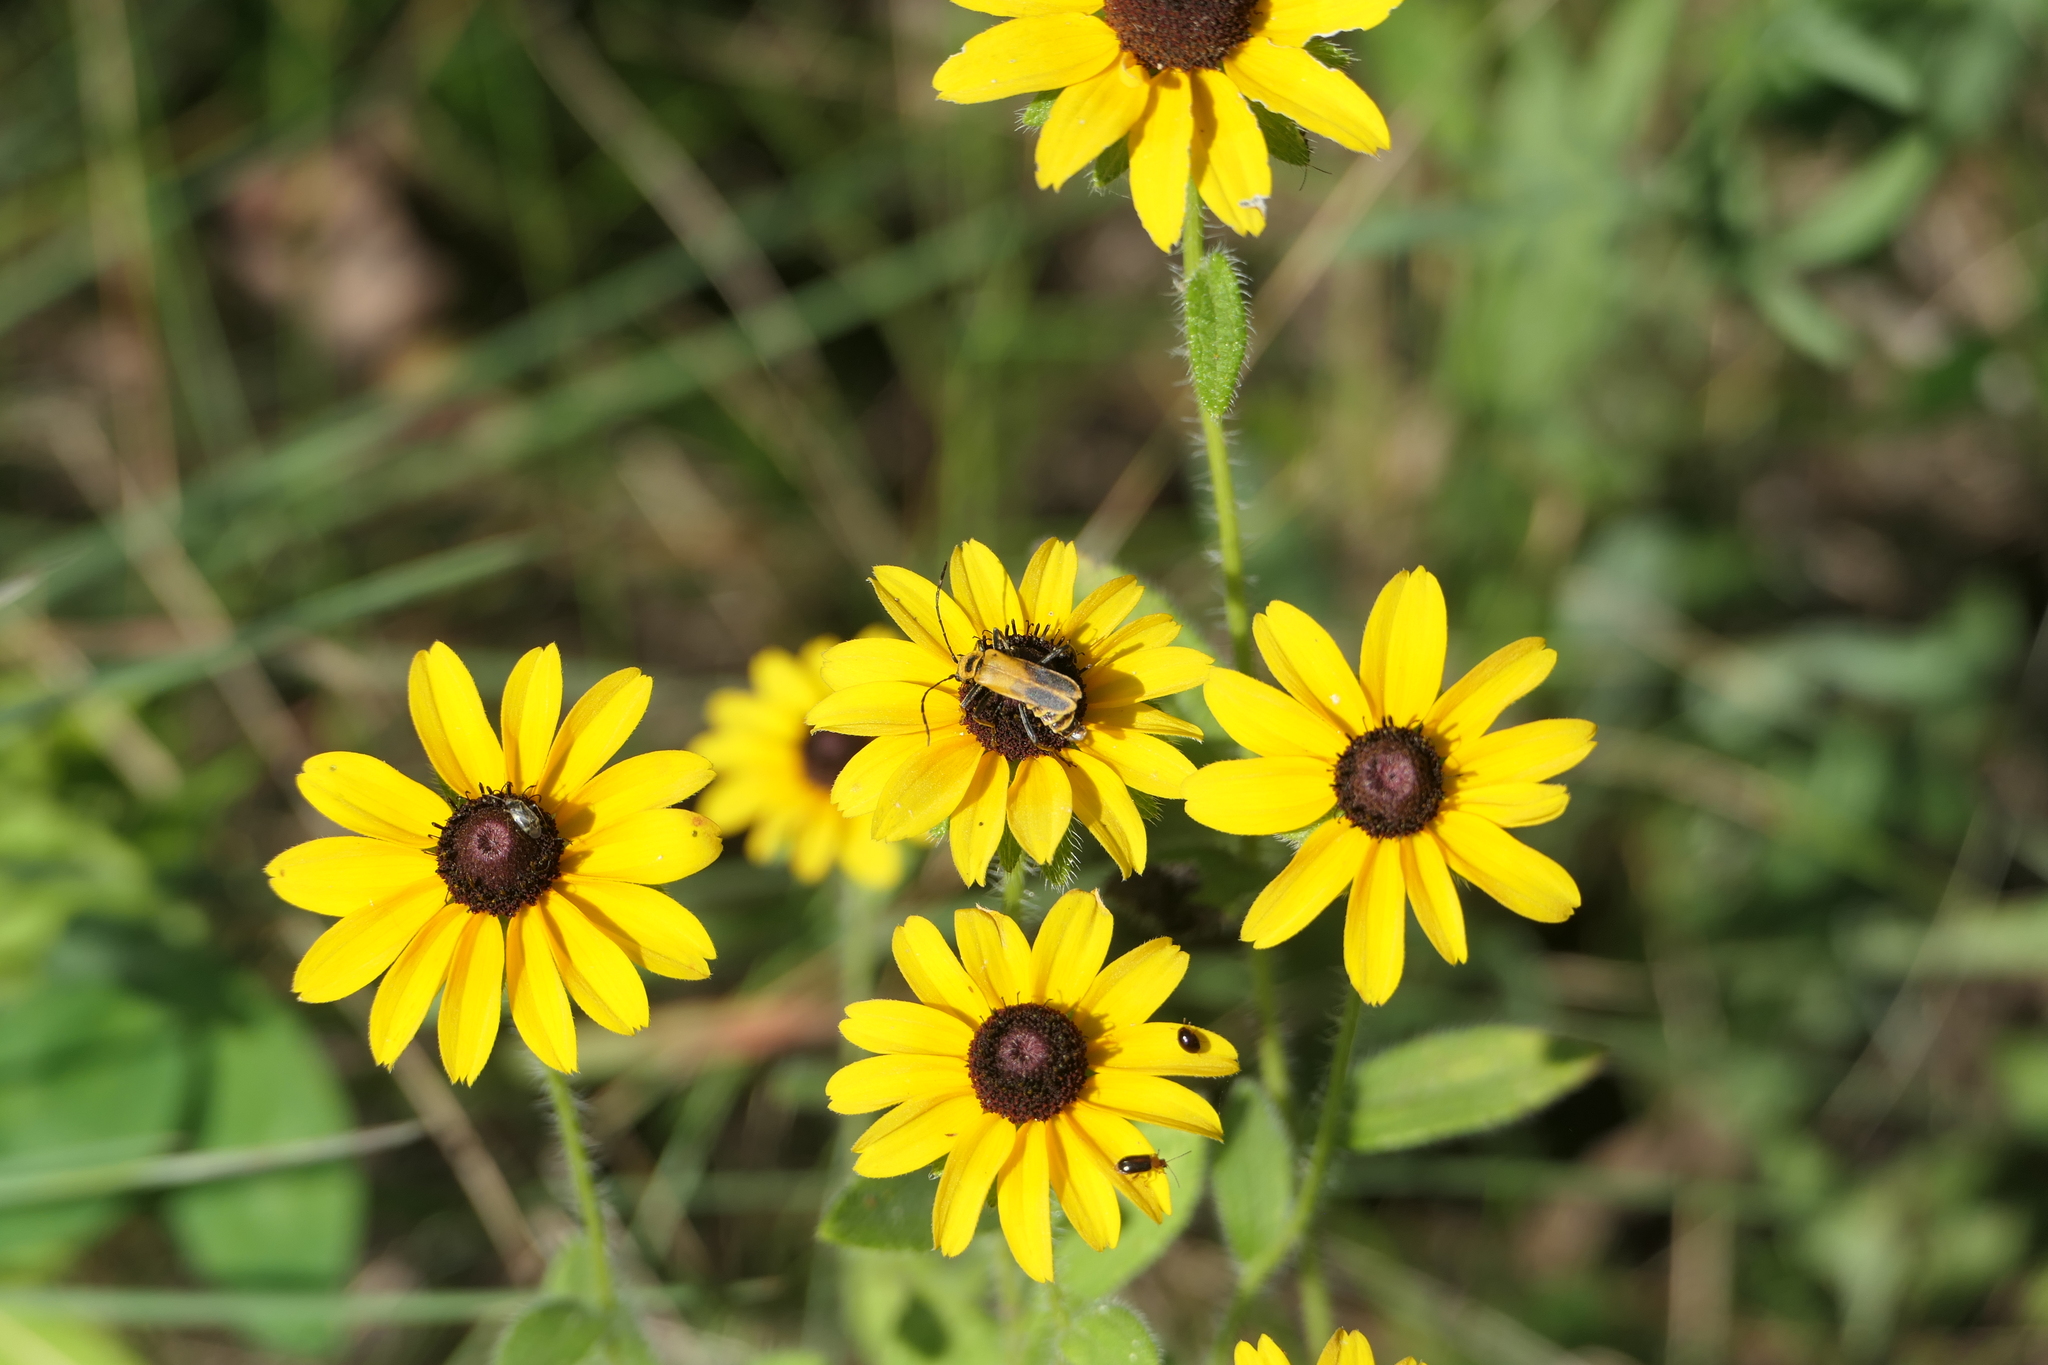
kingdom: Animalia
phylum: Arthropoda
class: Insecta
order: Coleoptera
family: Cantharidae
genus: Chauliognathus
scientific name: Chauliognathus pensylvanicus
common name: Goldenrod soldier beetle
